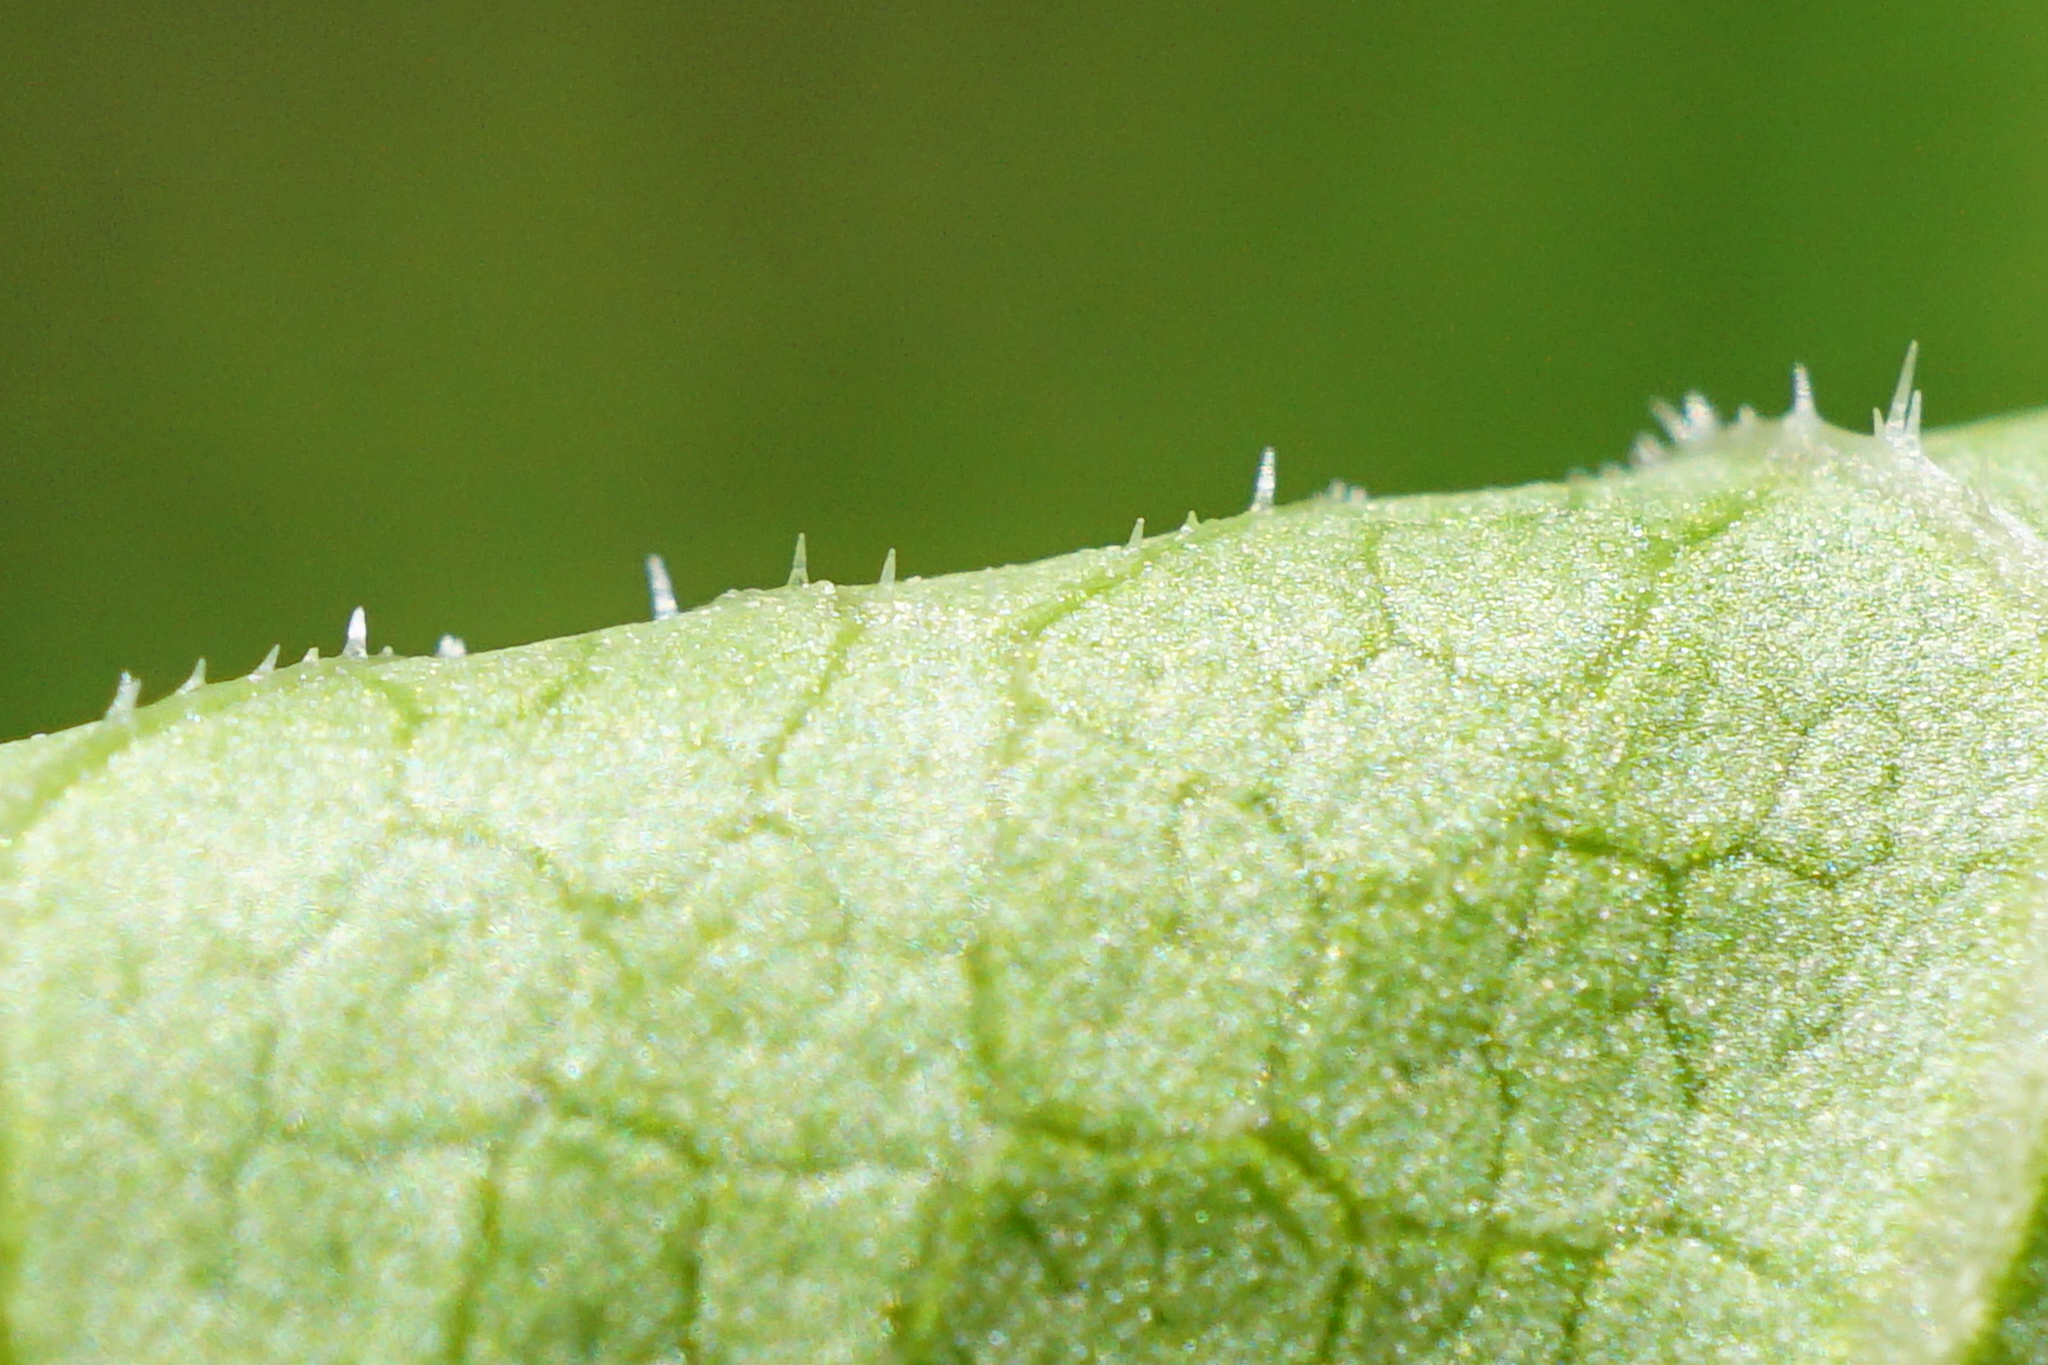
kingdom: Plantae
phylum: Tracheophyta
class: Magnoliopsida
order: Caryophyllales
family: Polygonaceae
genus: Reynoutria
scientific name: Reynoutria bohemica
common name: Bohemian knotweed
